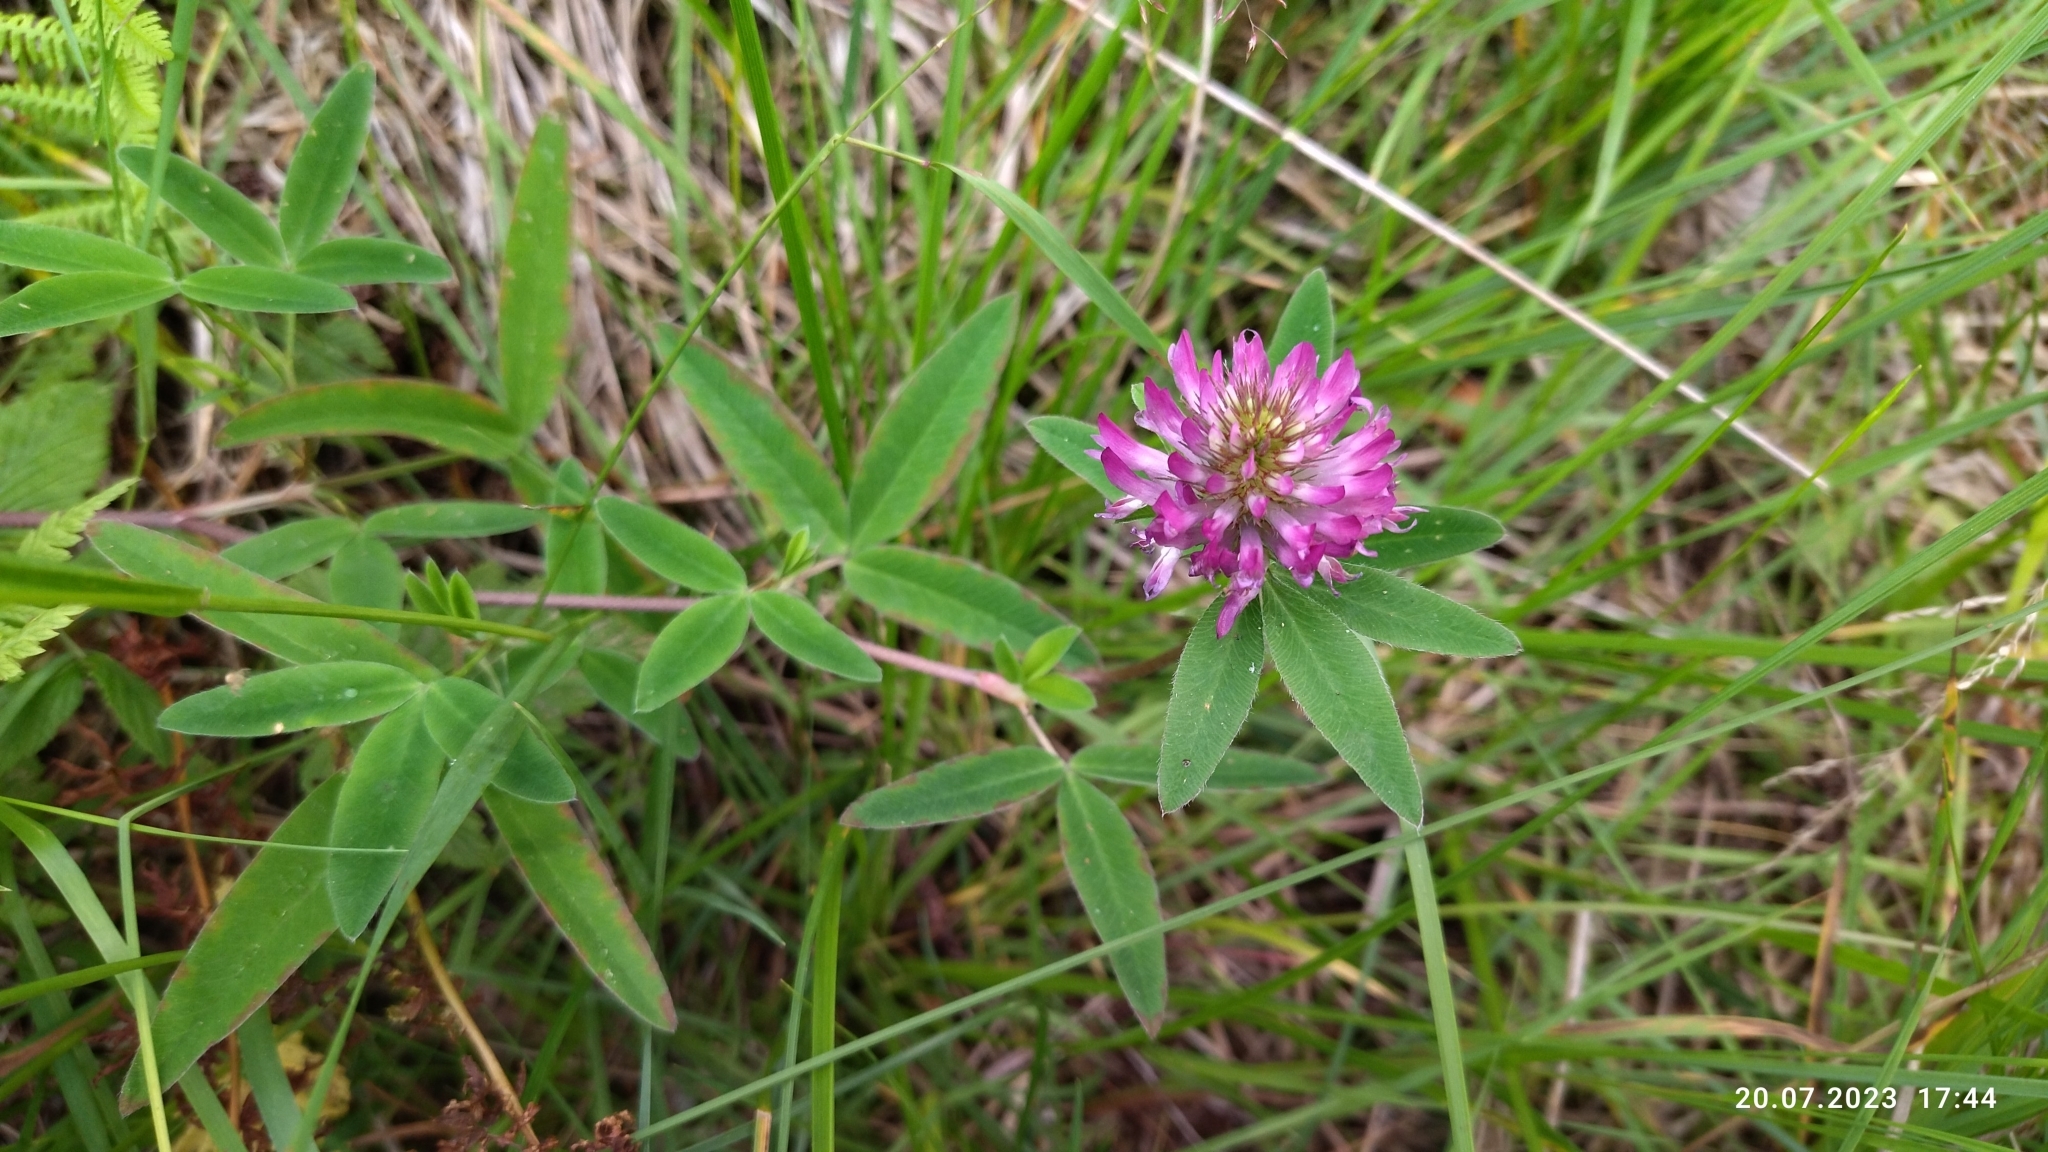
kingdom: Plantae
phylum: Tracheophyta
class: Magnoliopsida
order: Fabales
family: Fabaceae
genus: Trifolium
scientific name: Trifolium medium
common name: Zigzag clover
